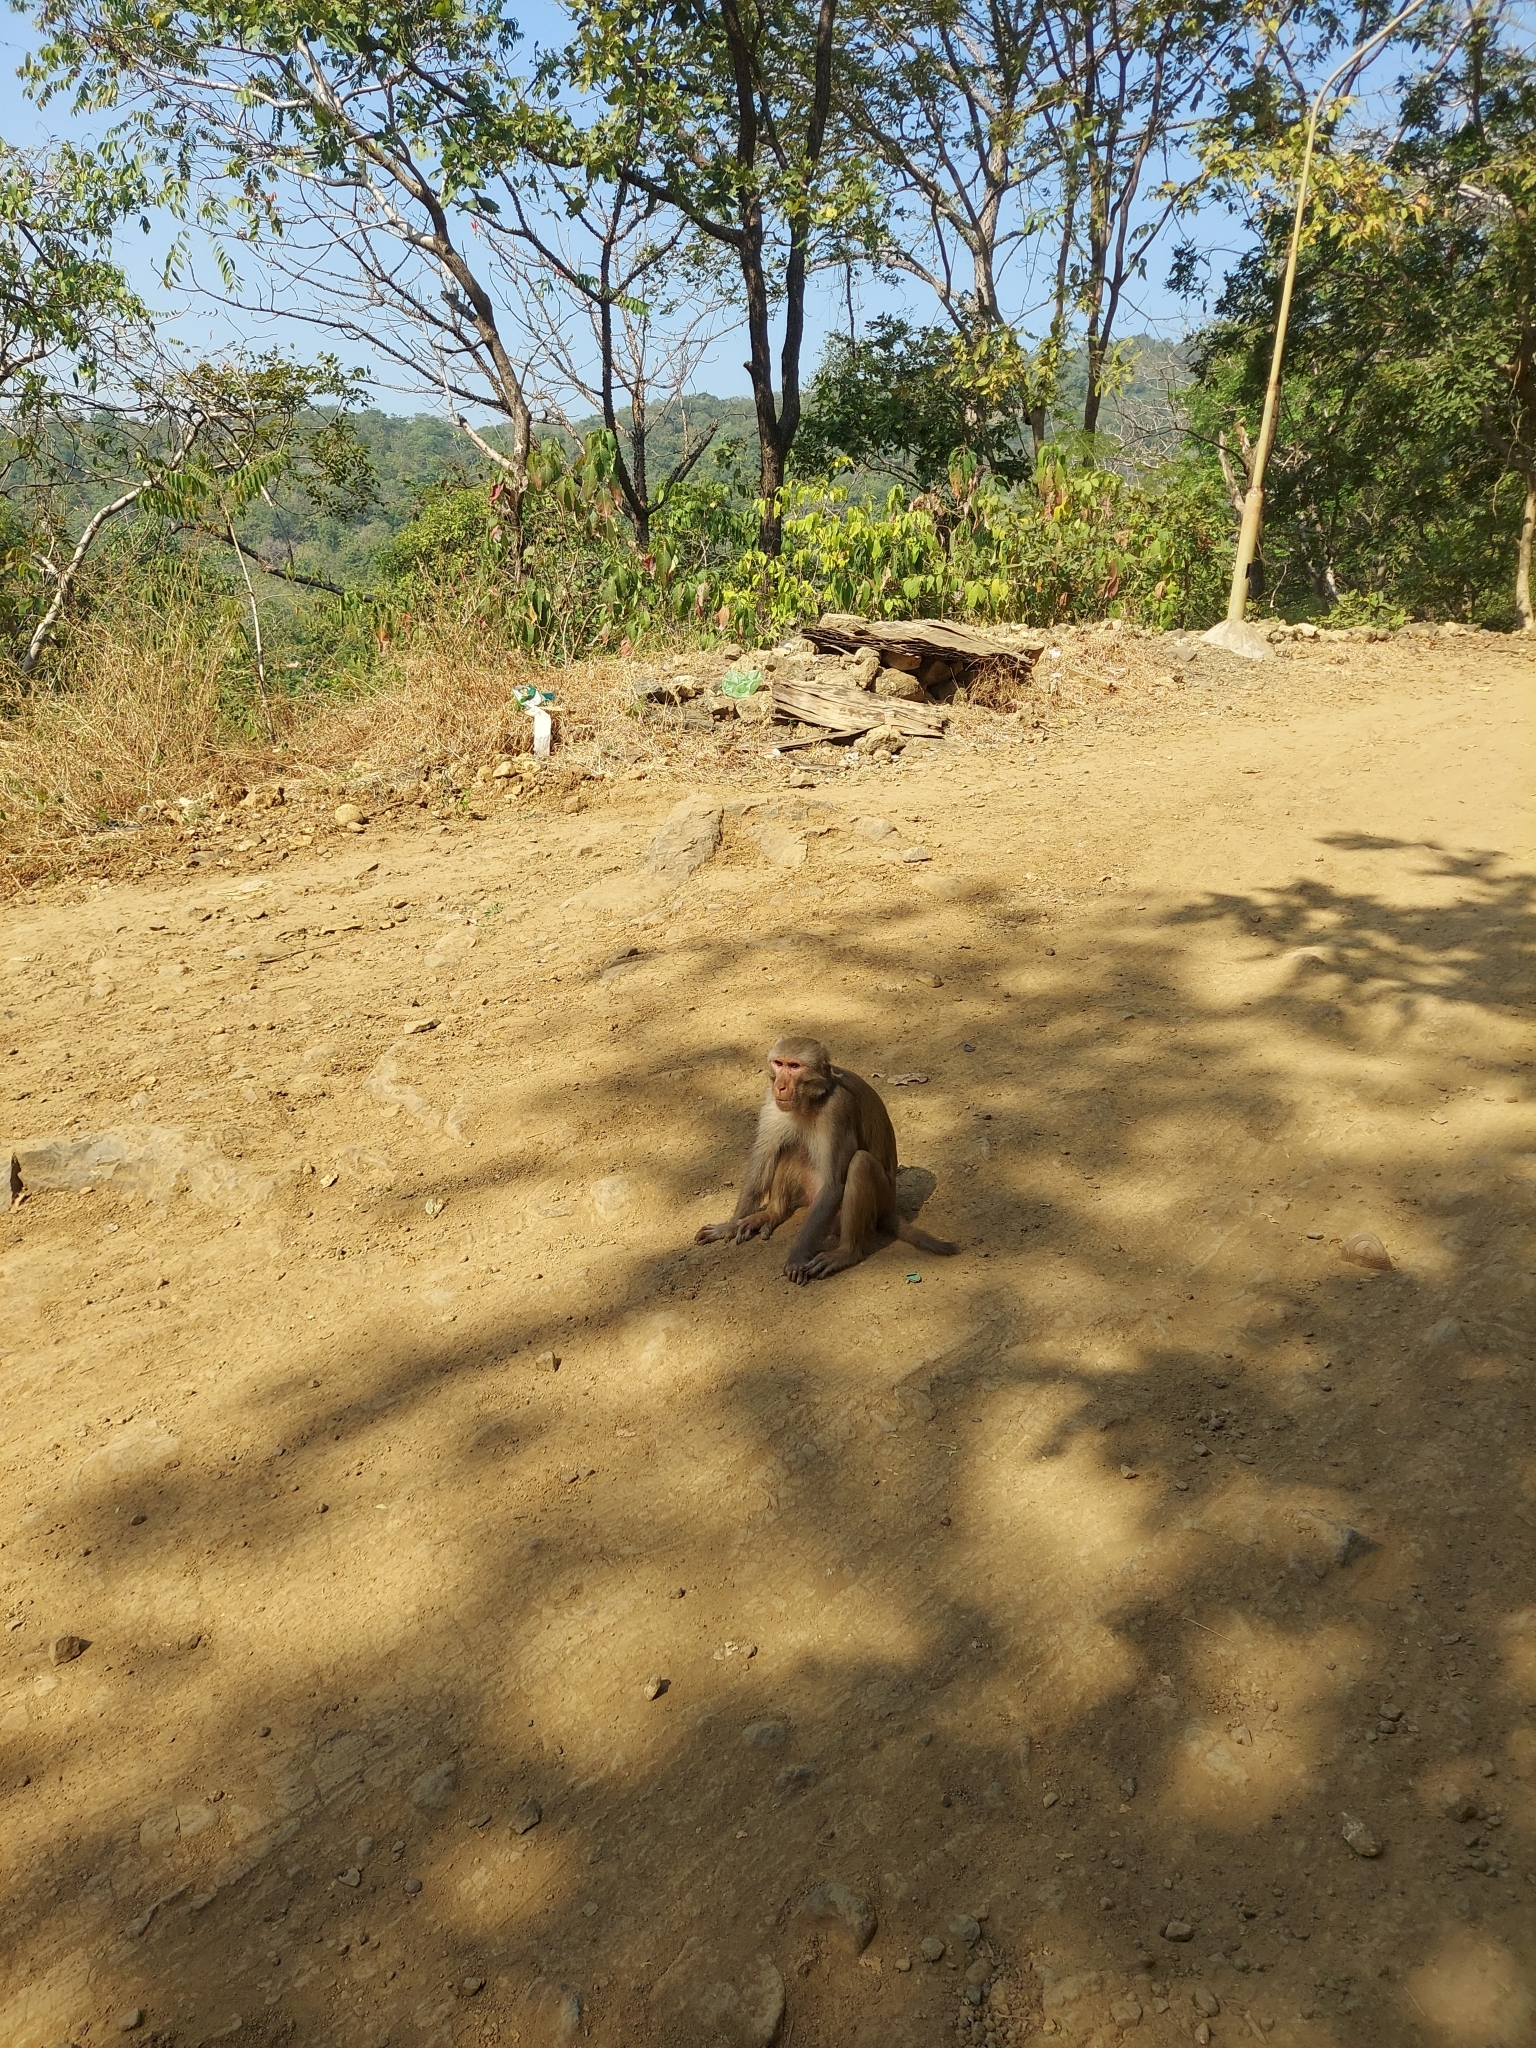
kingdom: Animalia
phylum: Chordata
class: Mammalia
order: Primates
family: Cercopithecidae
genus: Macaca
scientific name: Macaca mulatta
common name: Rhesus monkey
